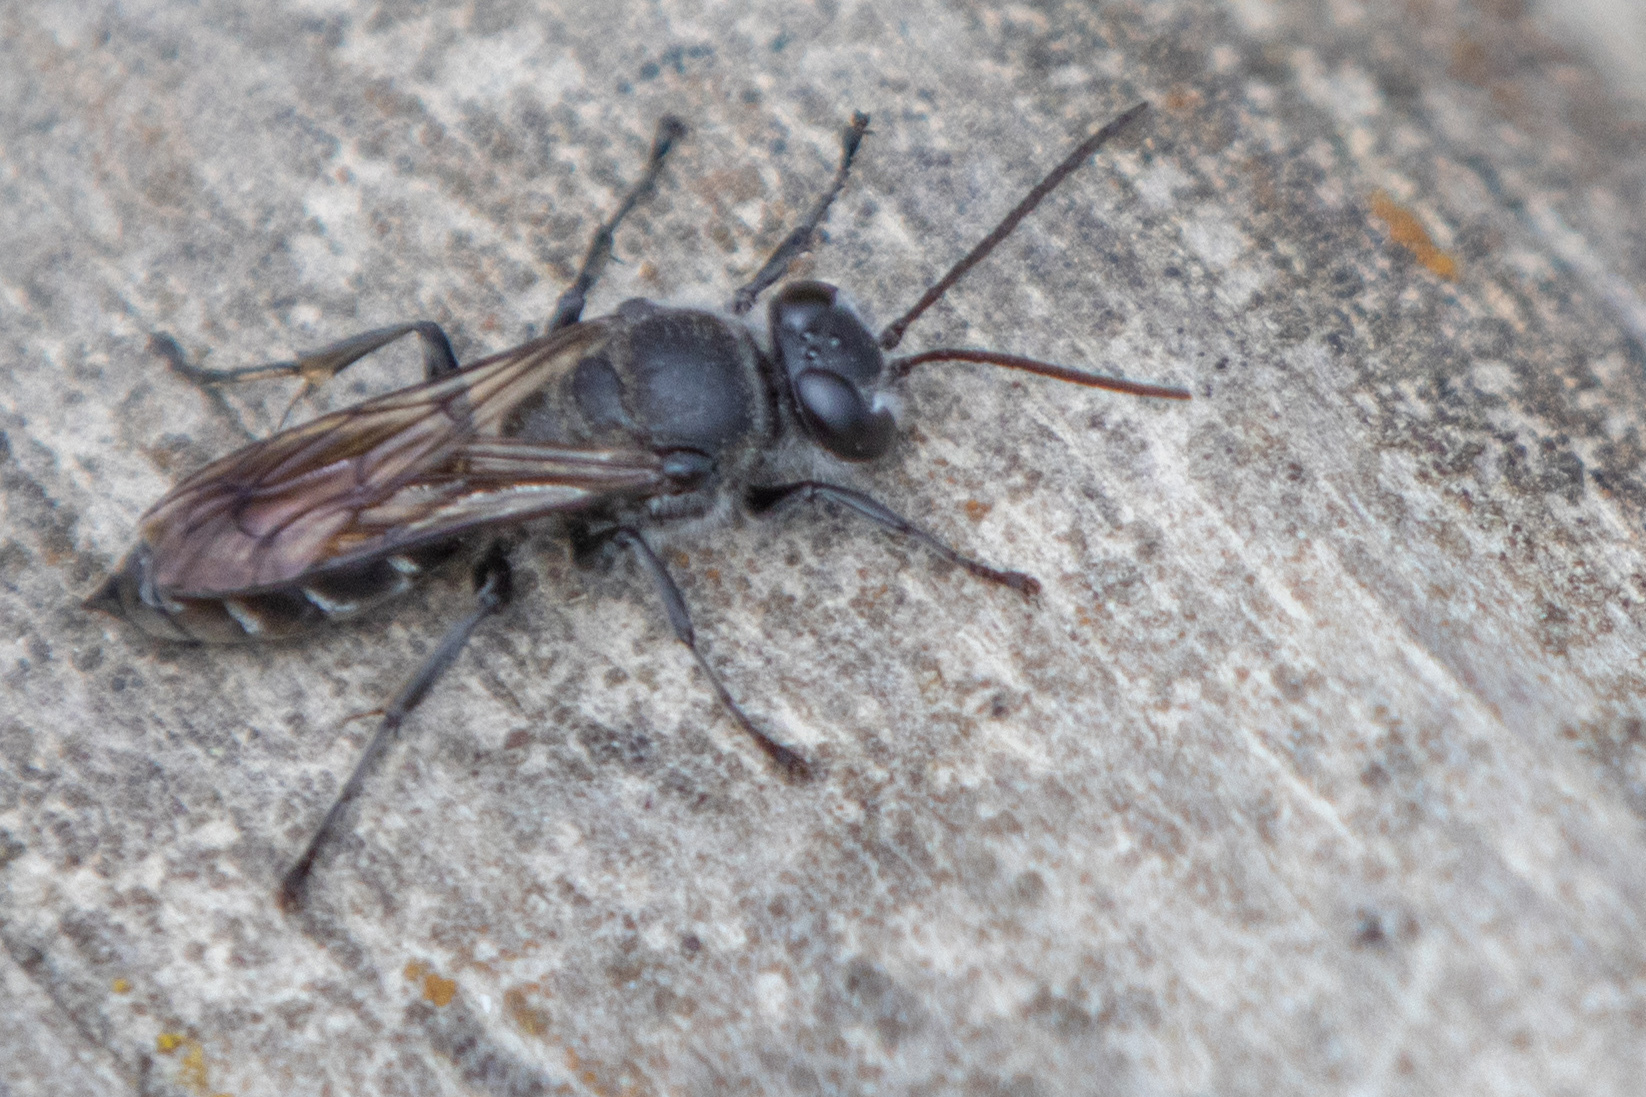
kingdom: Animalia
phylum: Arthropoda
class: Insecta
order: Hymenoptera
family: Crabronidae
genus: Pison
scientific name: Pison spinolae
